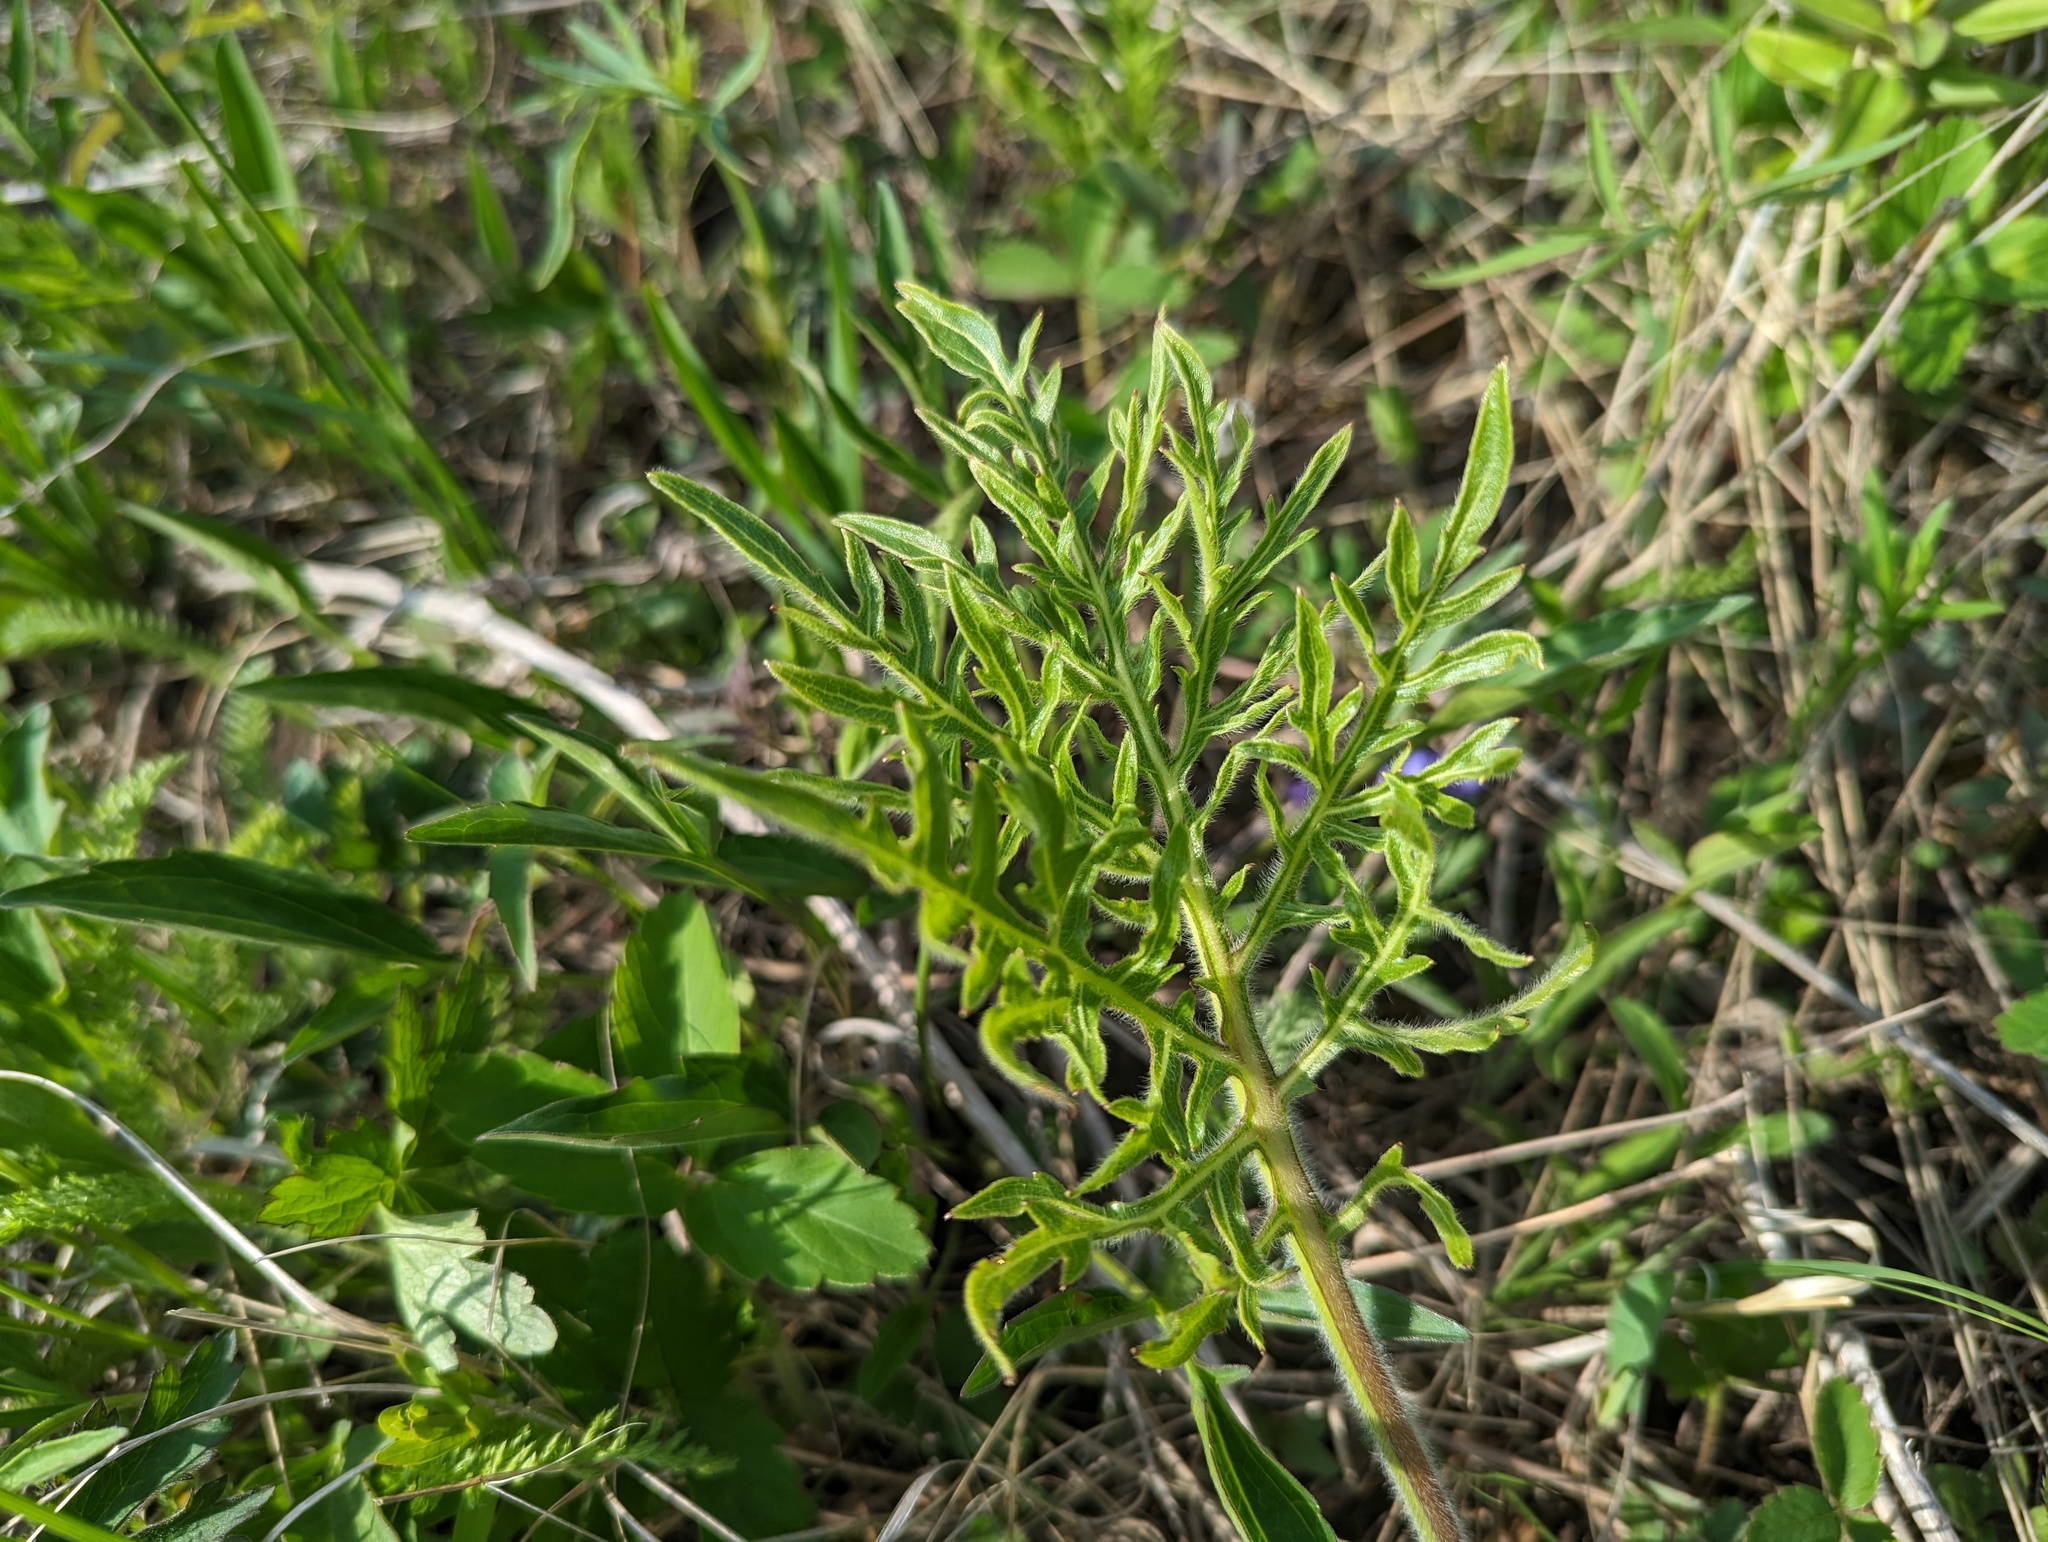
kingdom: Plantae
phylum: Tracheophyta
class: Magnoliopsida
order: Asterales
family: Asteraceae
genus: Silphium
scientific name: Silphium laciniatum
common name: Polarplant
